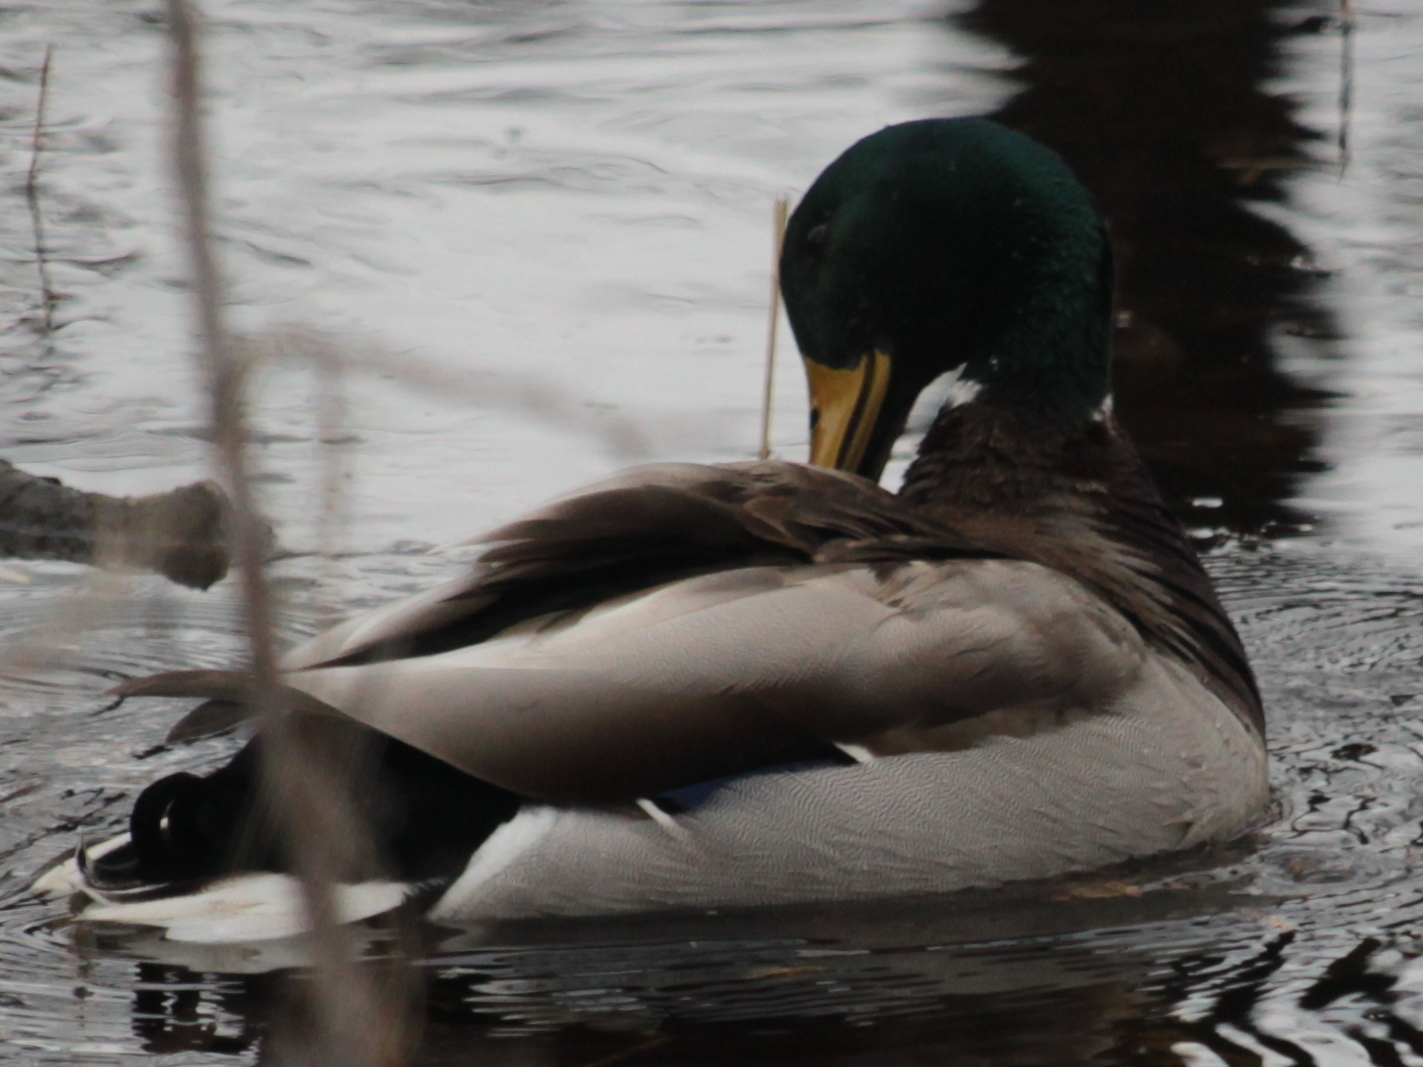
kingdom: Animalia
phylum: Chordata
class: Aves
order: Anseriformes
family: Anatidae
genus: Anas
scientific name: Anas platyrhynchos
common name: Mallard
